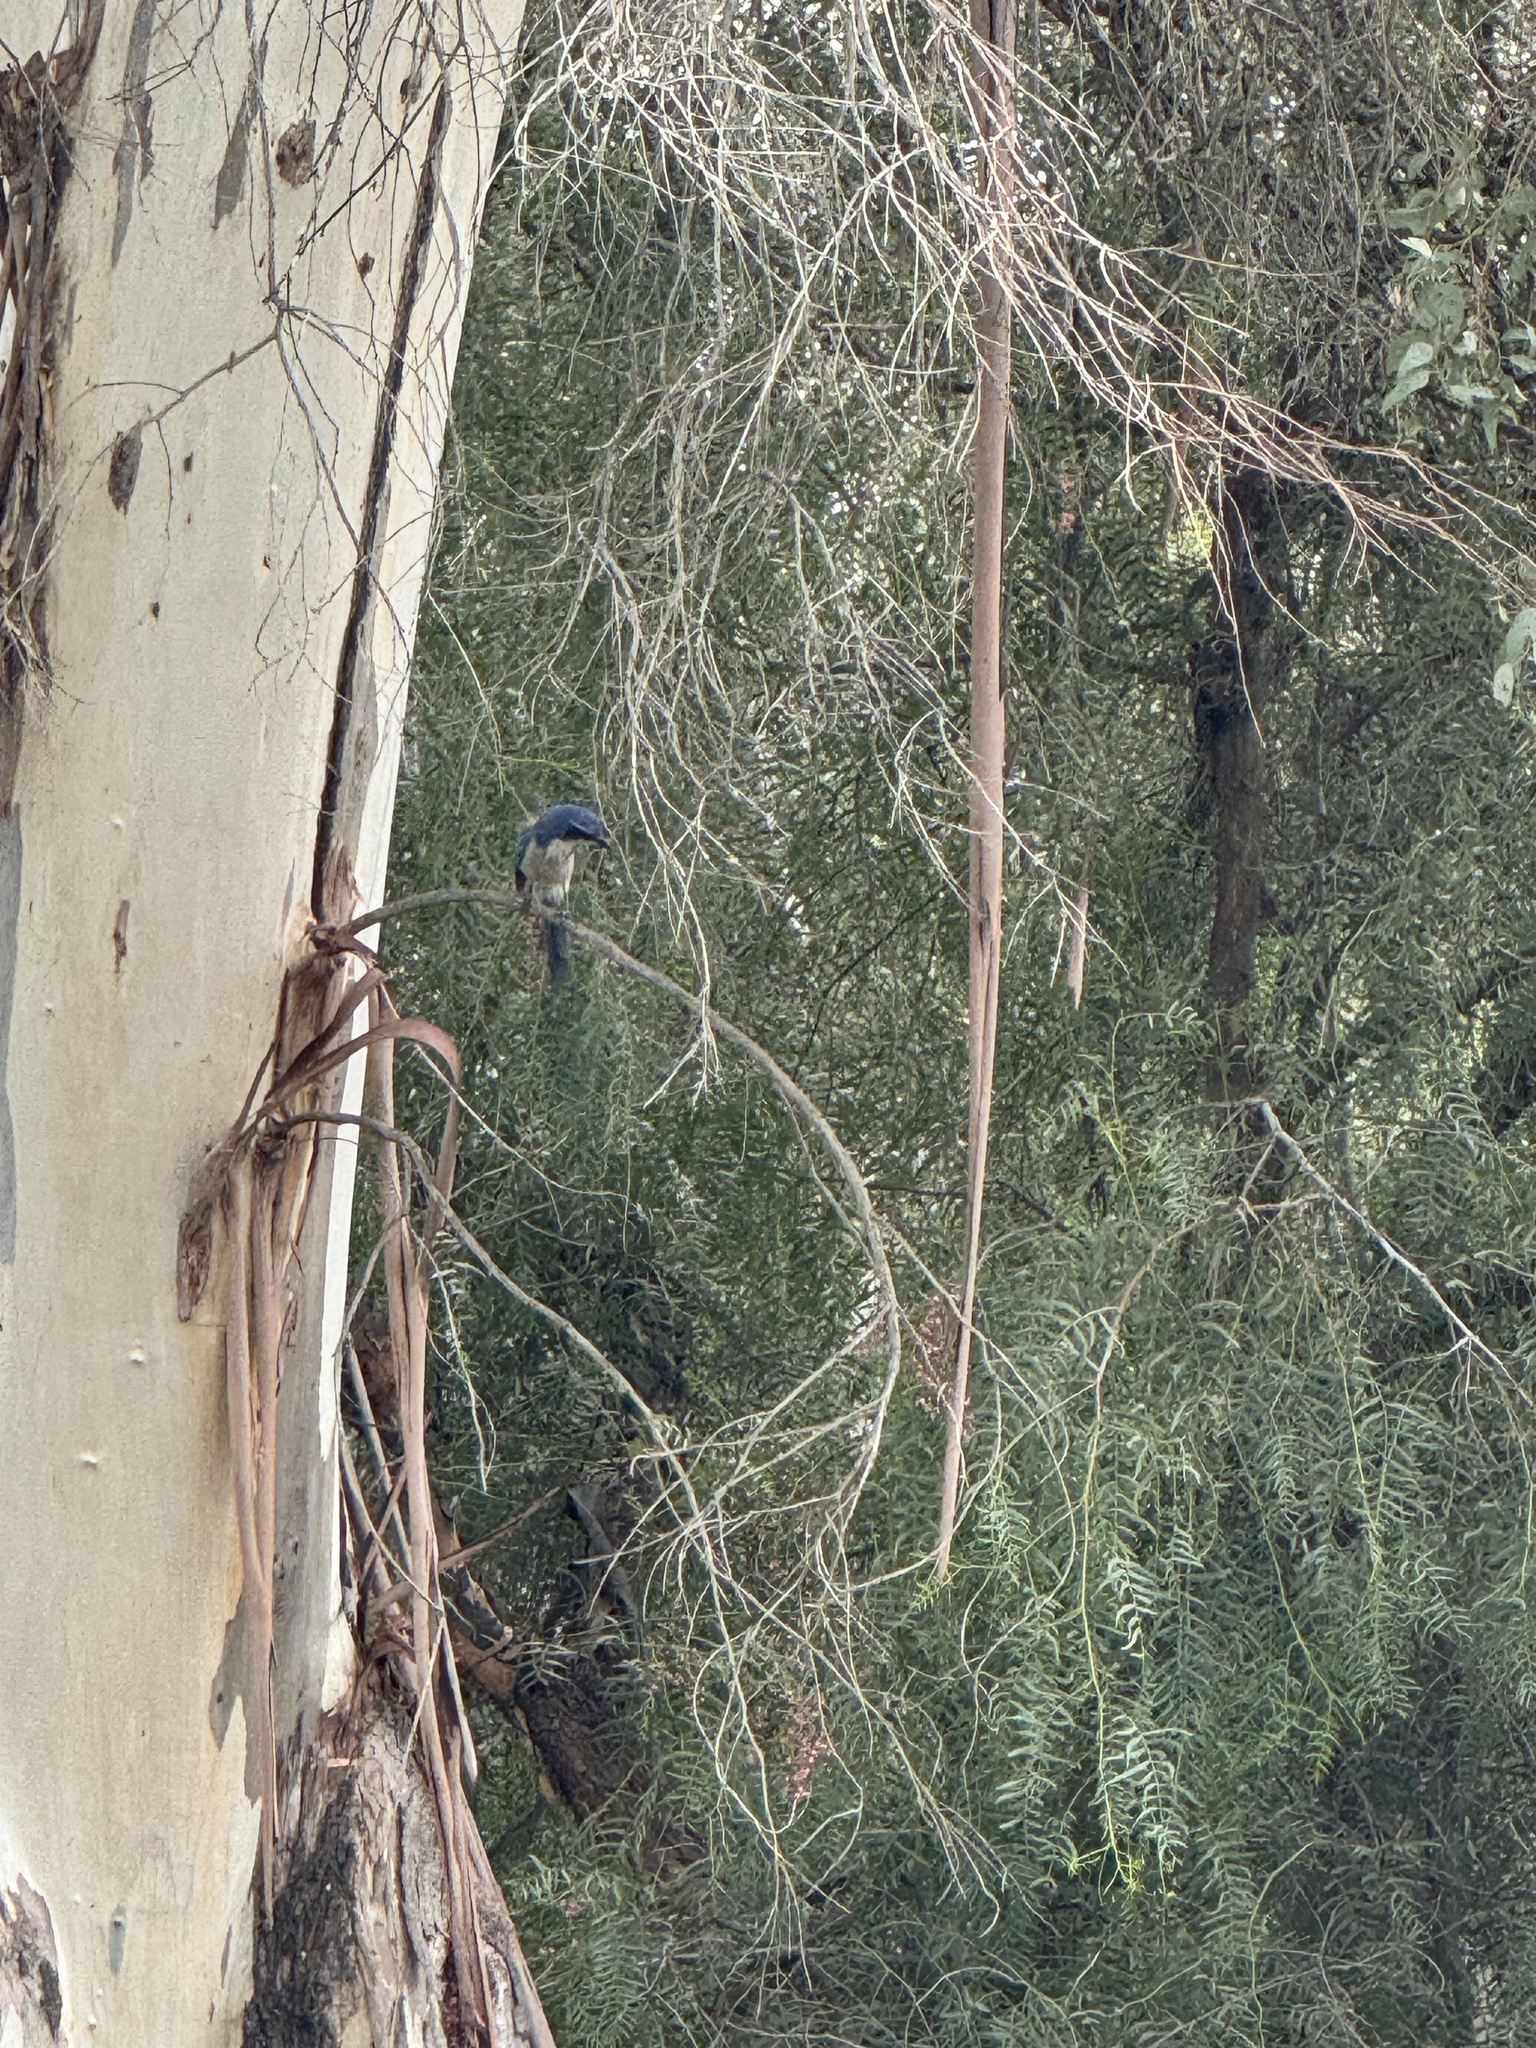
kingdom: Animalia
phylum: Chordata
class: Aves
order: Passeriformes
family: Corvidae
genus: Aphelocoma
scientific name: Aphelocoma californica
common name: California scrub-jay
